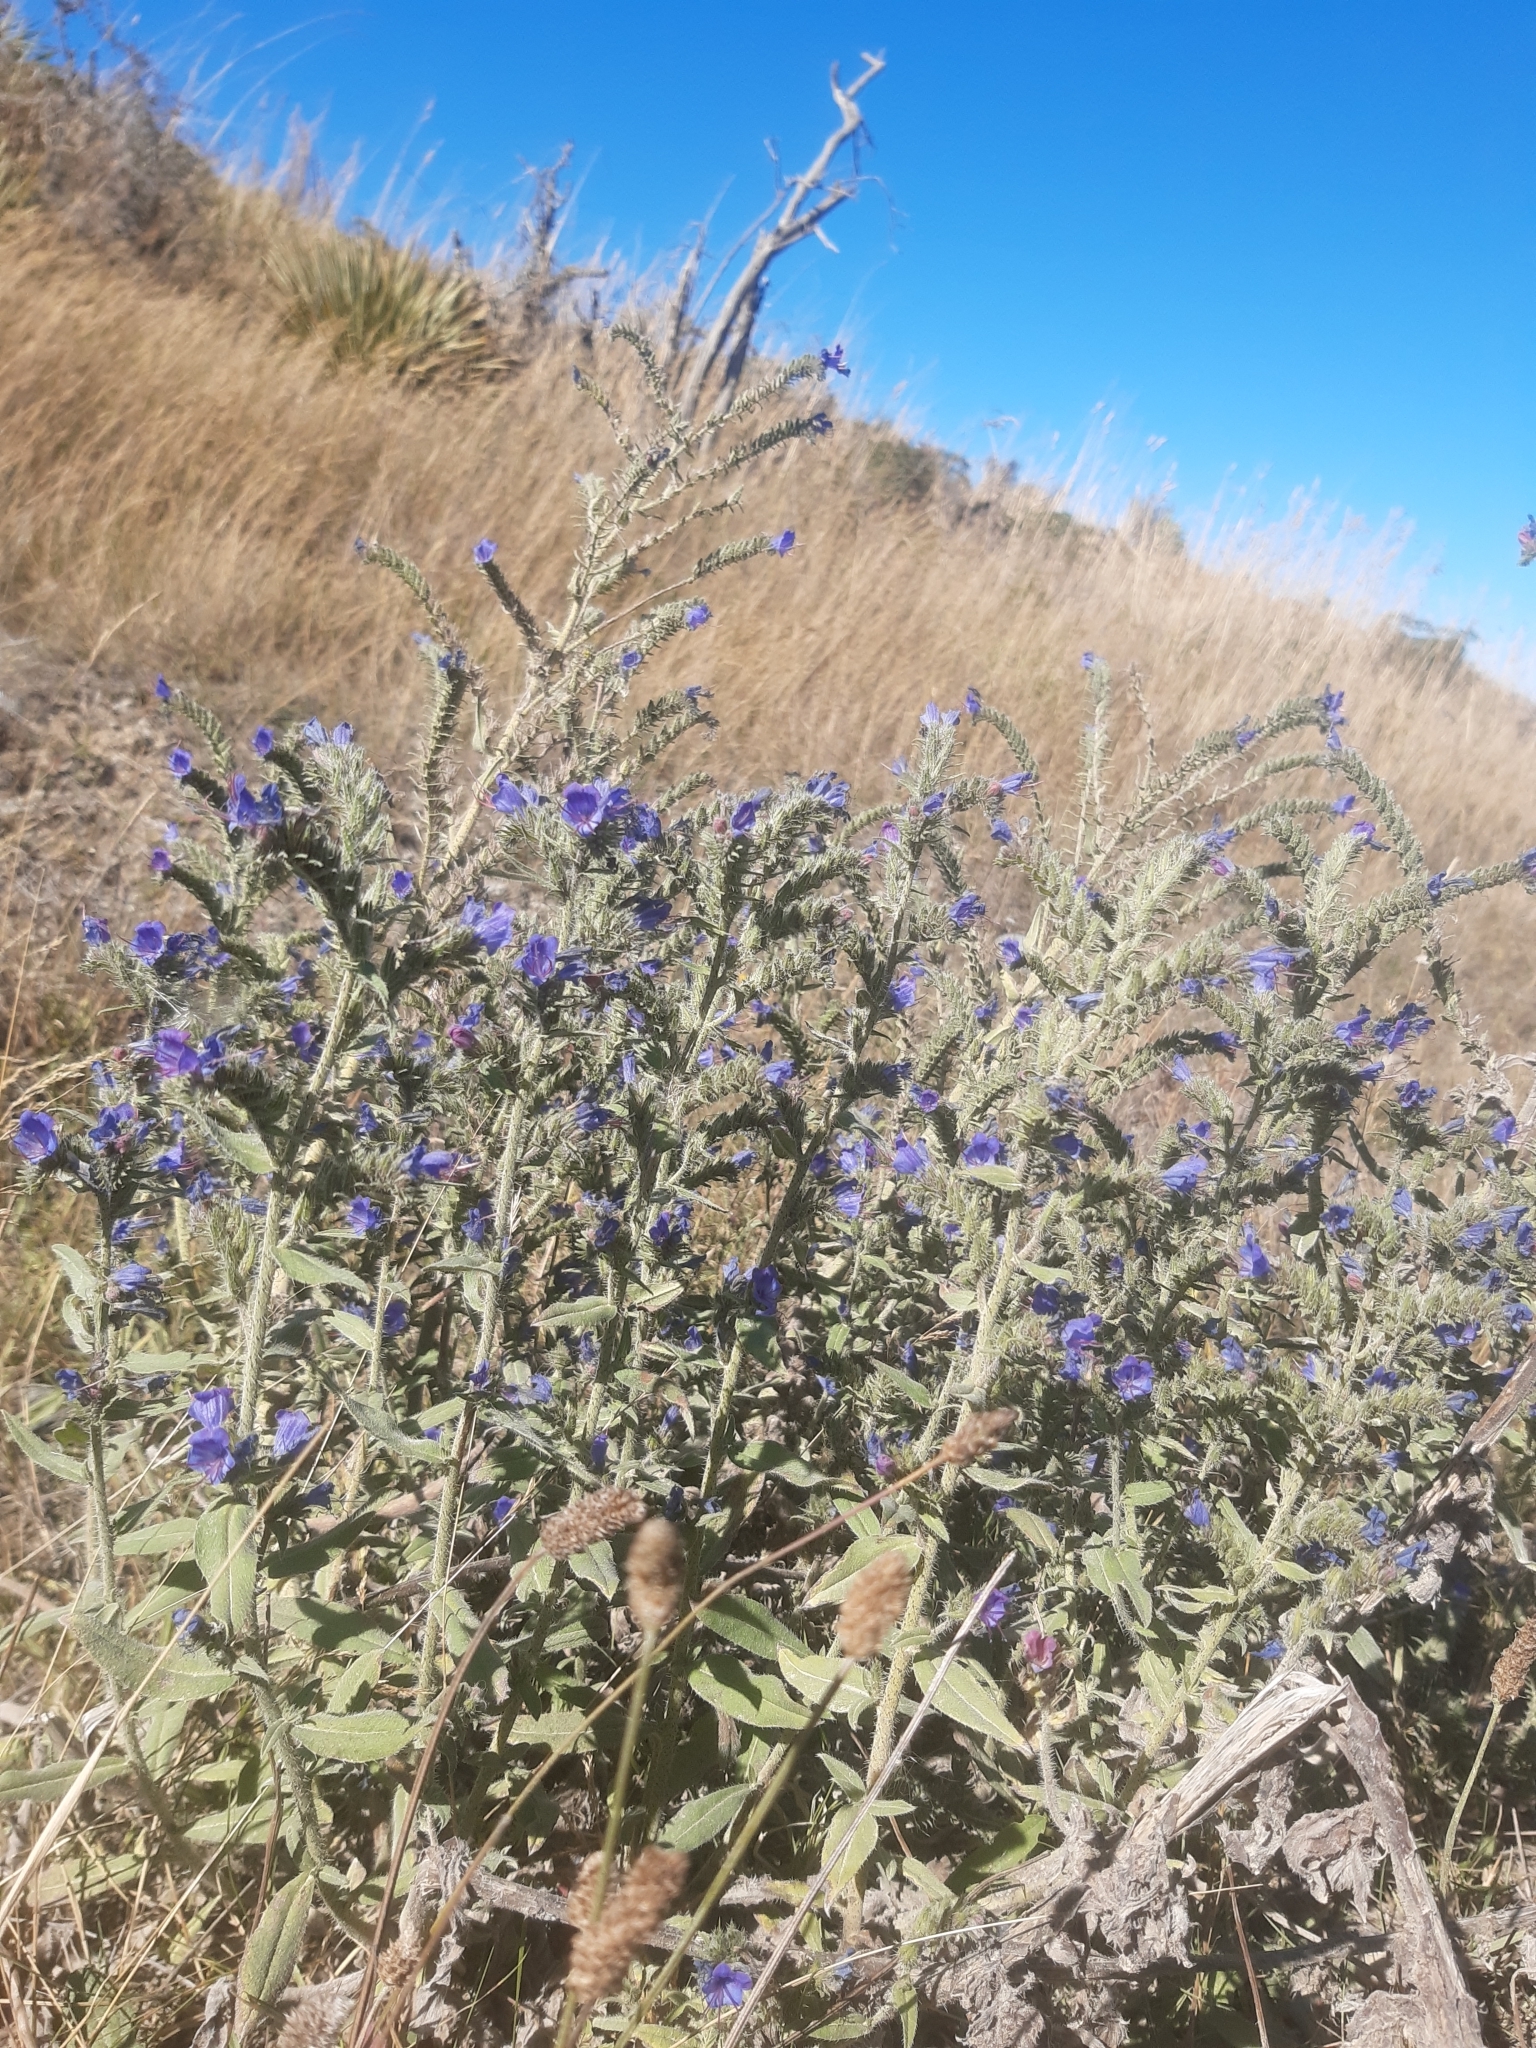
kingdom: Plantae
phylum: Tracheophyta
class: Magnoliopsida
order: Boraginales
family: Boraginaceae
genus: Echium
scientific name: Echium vulgare
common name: Common viper's bugloss
